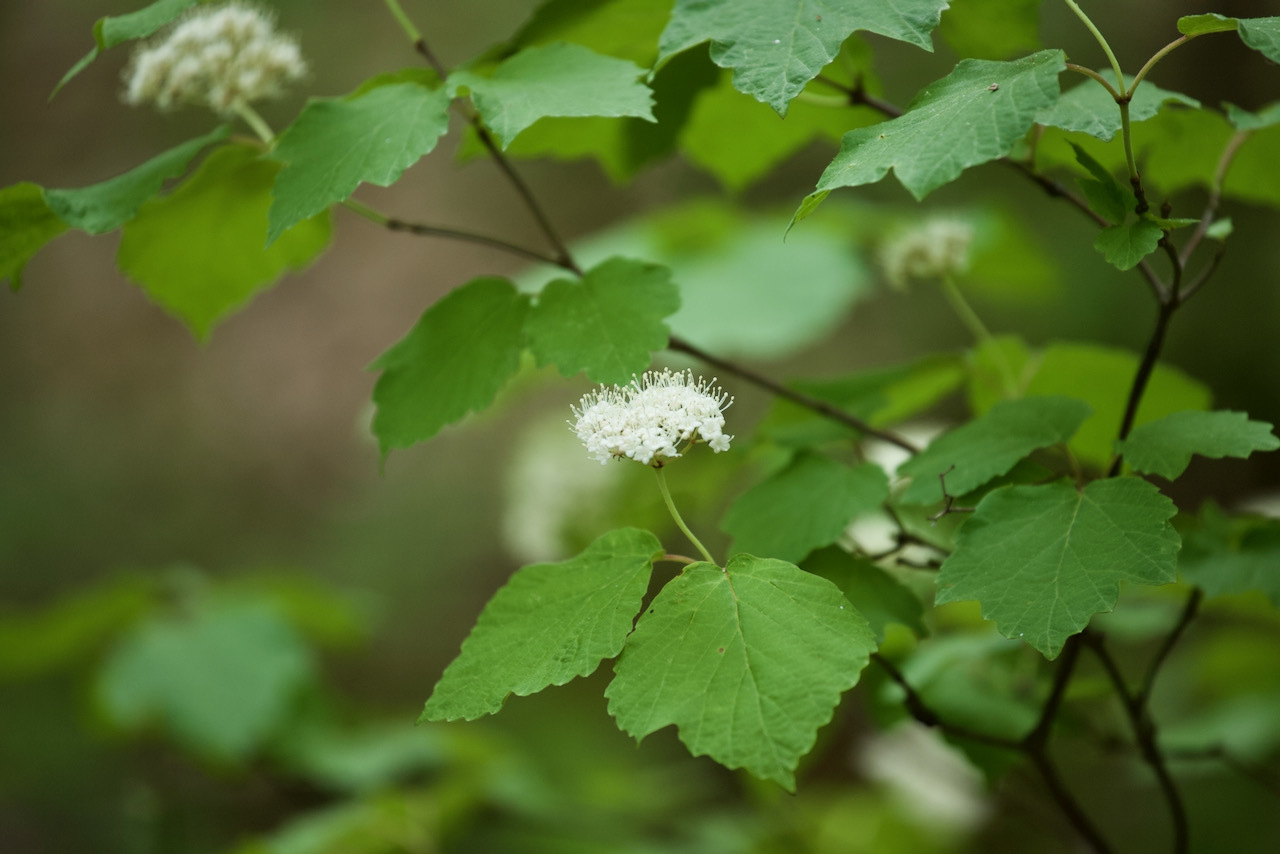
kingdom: Plantae
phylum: Tracheophyta
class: Magnoliopsida
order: Dipsacales
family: Viburnaceae
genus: Viburnum
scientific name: Viburnum acerifolium
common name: Dockmackie
